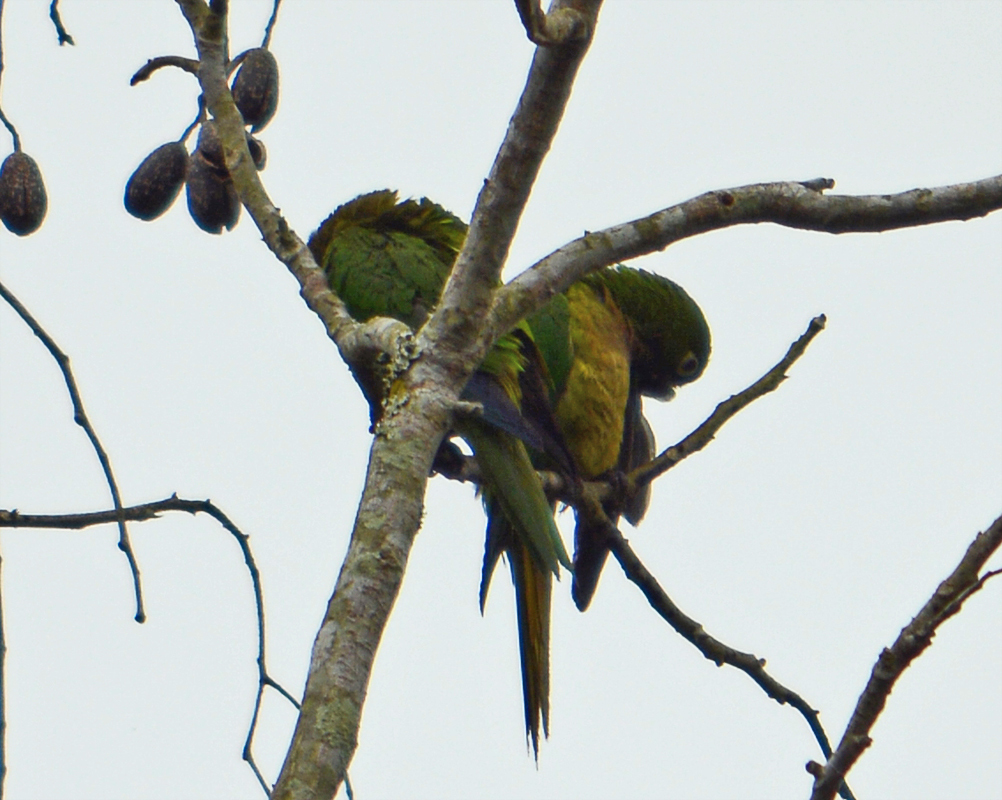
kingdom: Animalia
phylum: Chordata
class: Aves
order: Psittaciformes
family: Psittacidae
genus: Aratinga
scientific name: Aratinga nana
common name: Olive-throated parakeet
